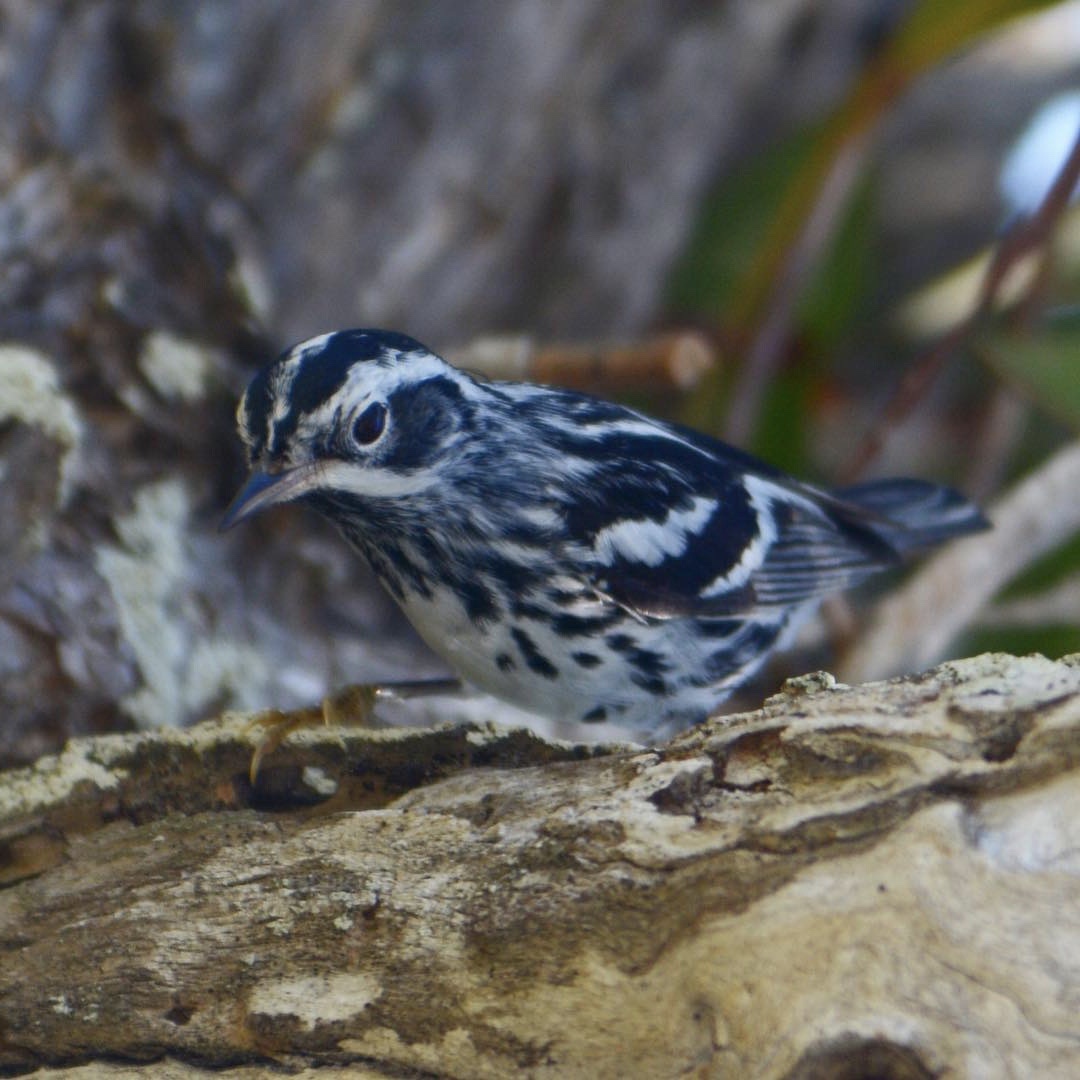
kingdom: Animalia
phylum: Chordata
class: Aves
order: Passeriformes
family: Parulidae
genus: Mniotilta
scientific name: Mniotilta varia
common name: Black-and-white warbler
